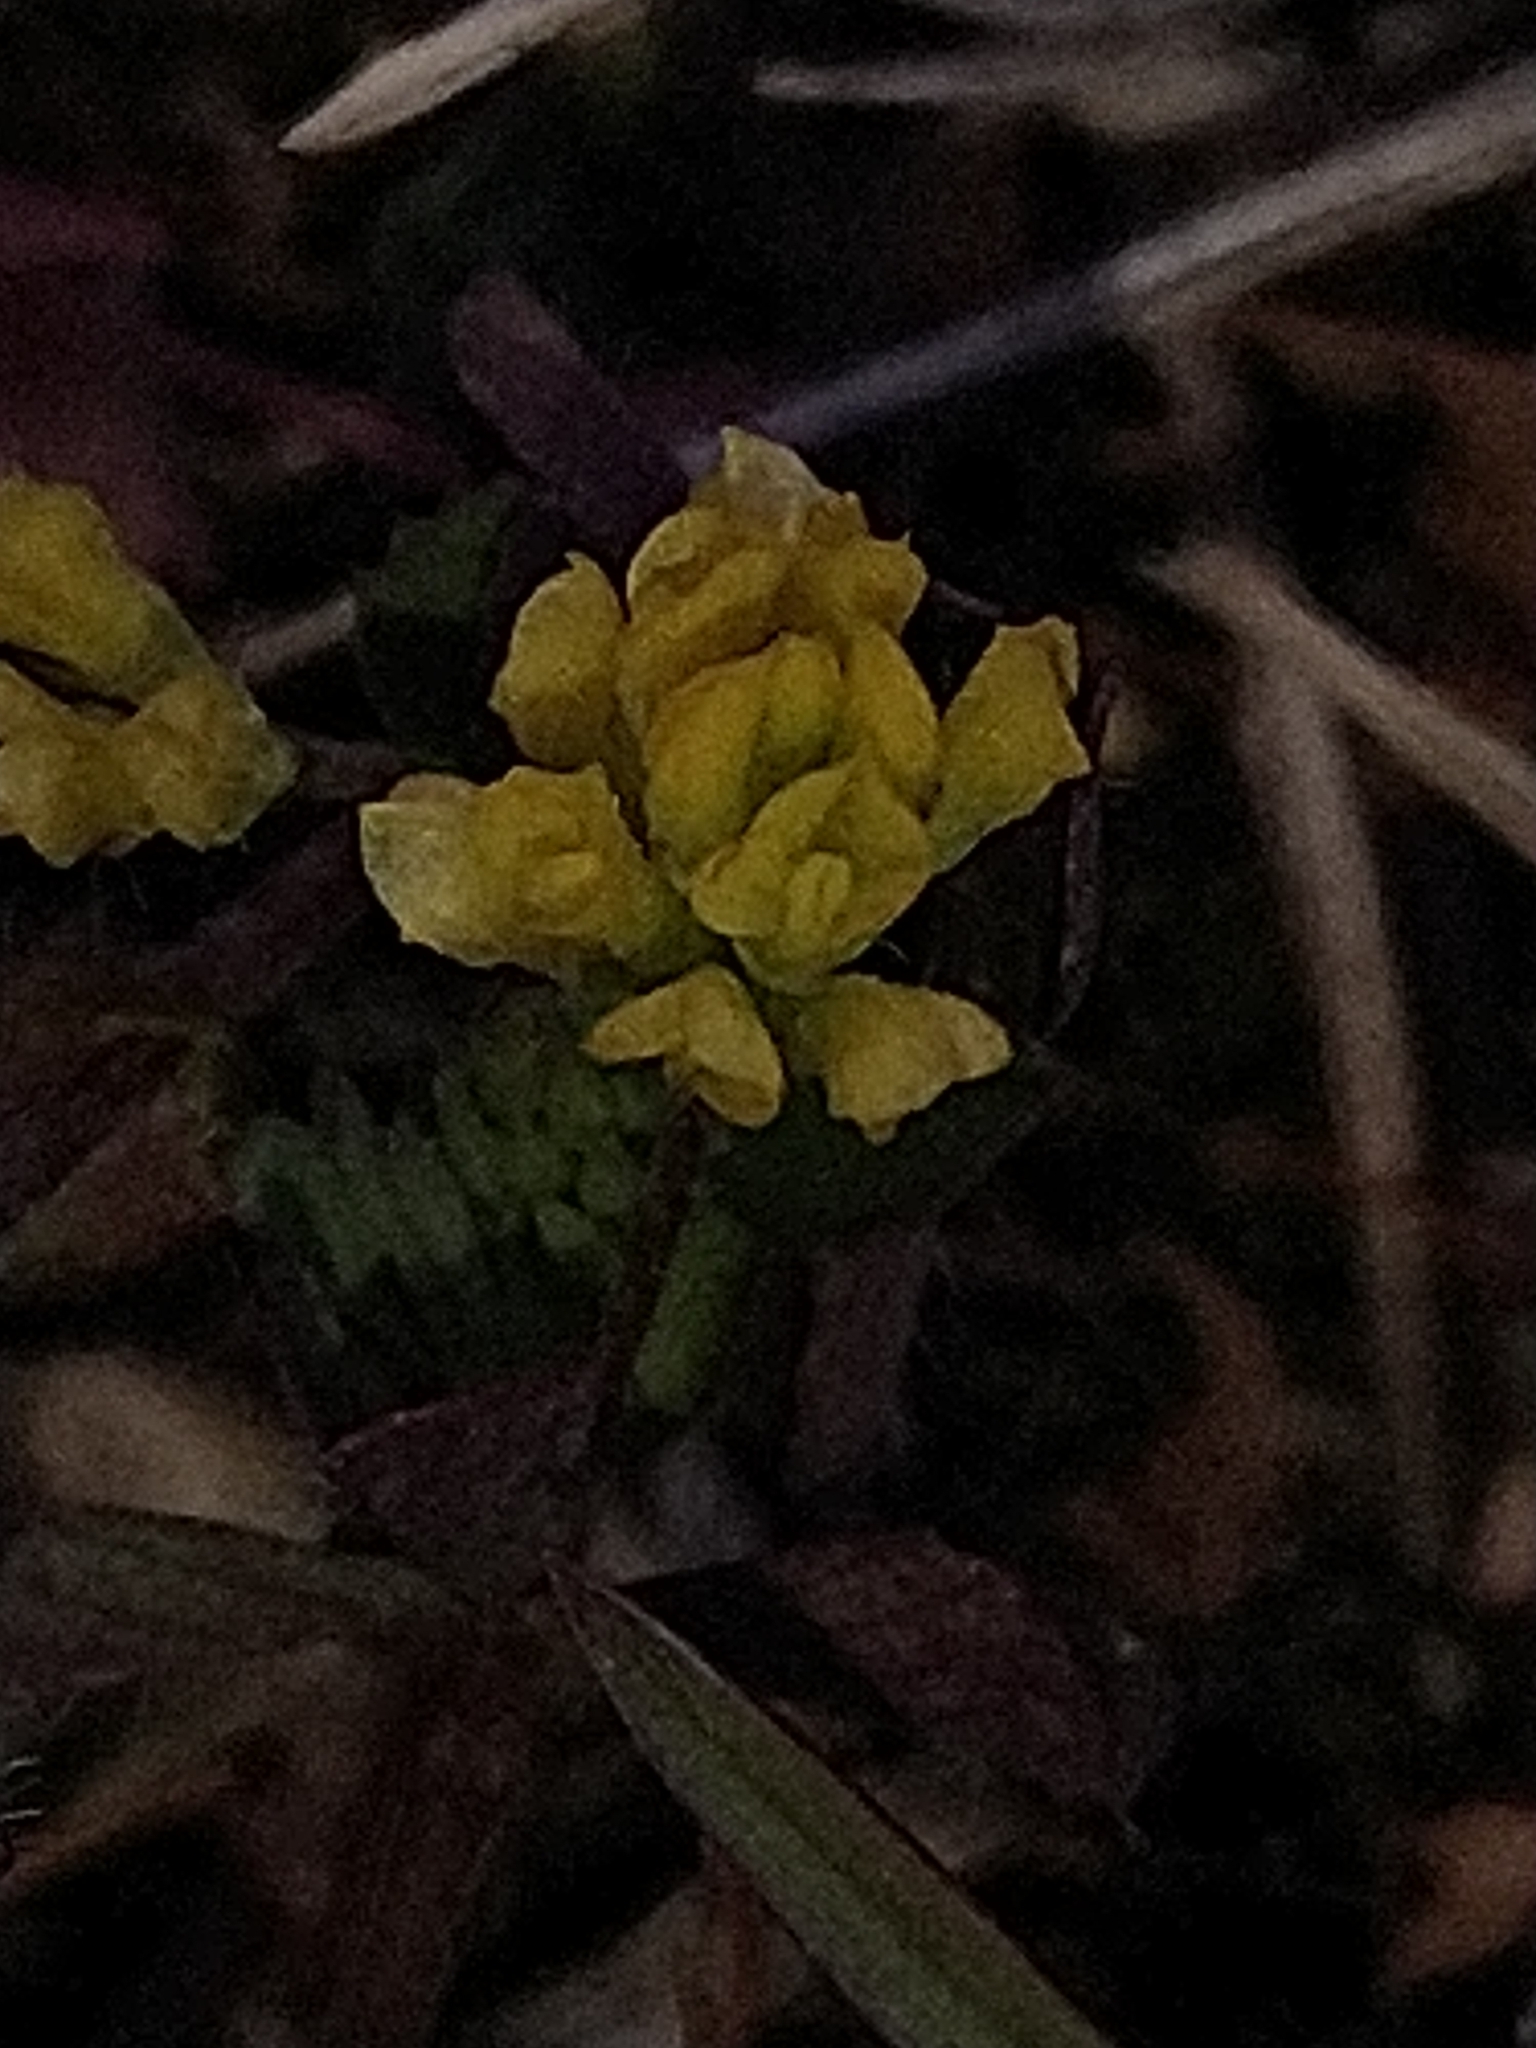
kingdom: Plantae
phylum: Tracheophyta
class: Magnoliopsida
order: Fabales
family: Fabaceae
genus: Trifolium
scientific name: Trifolium dubium
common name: Suckling clover
